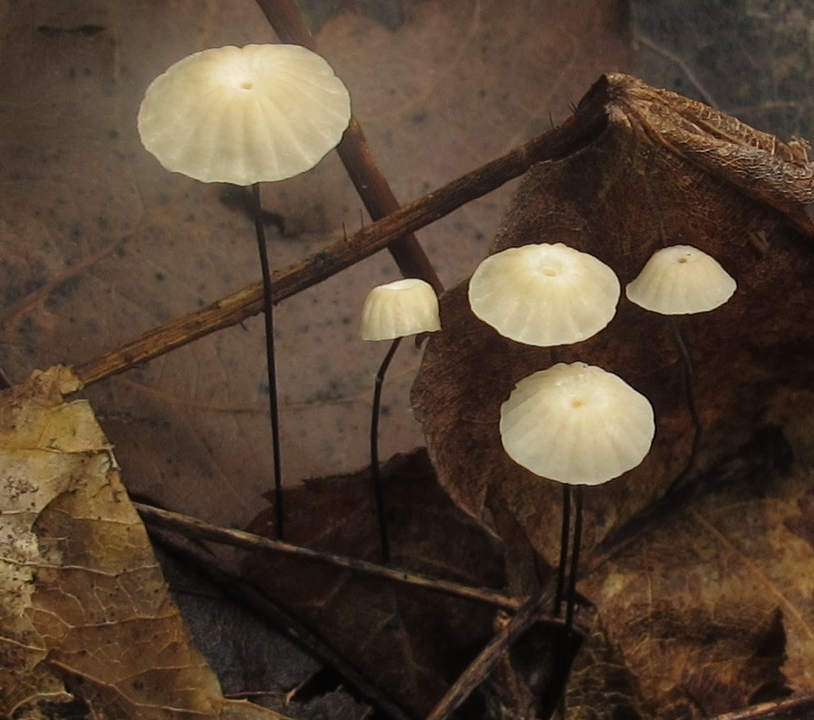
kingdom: Fungi
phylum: Basidiomycota
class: Agaricomycetes
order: Agaricales
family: Marasmiaceae
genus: Marasmius
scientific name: Marasmius capillaris
